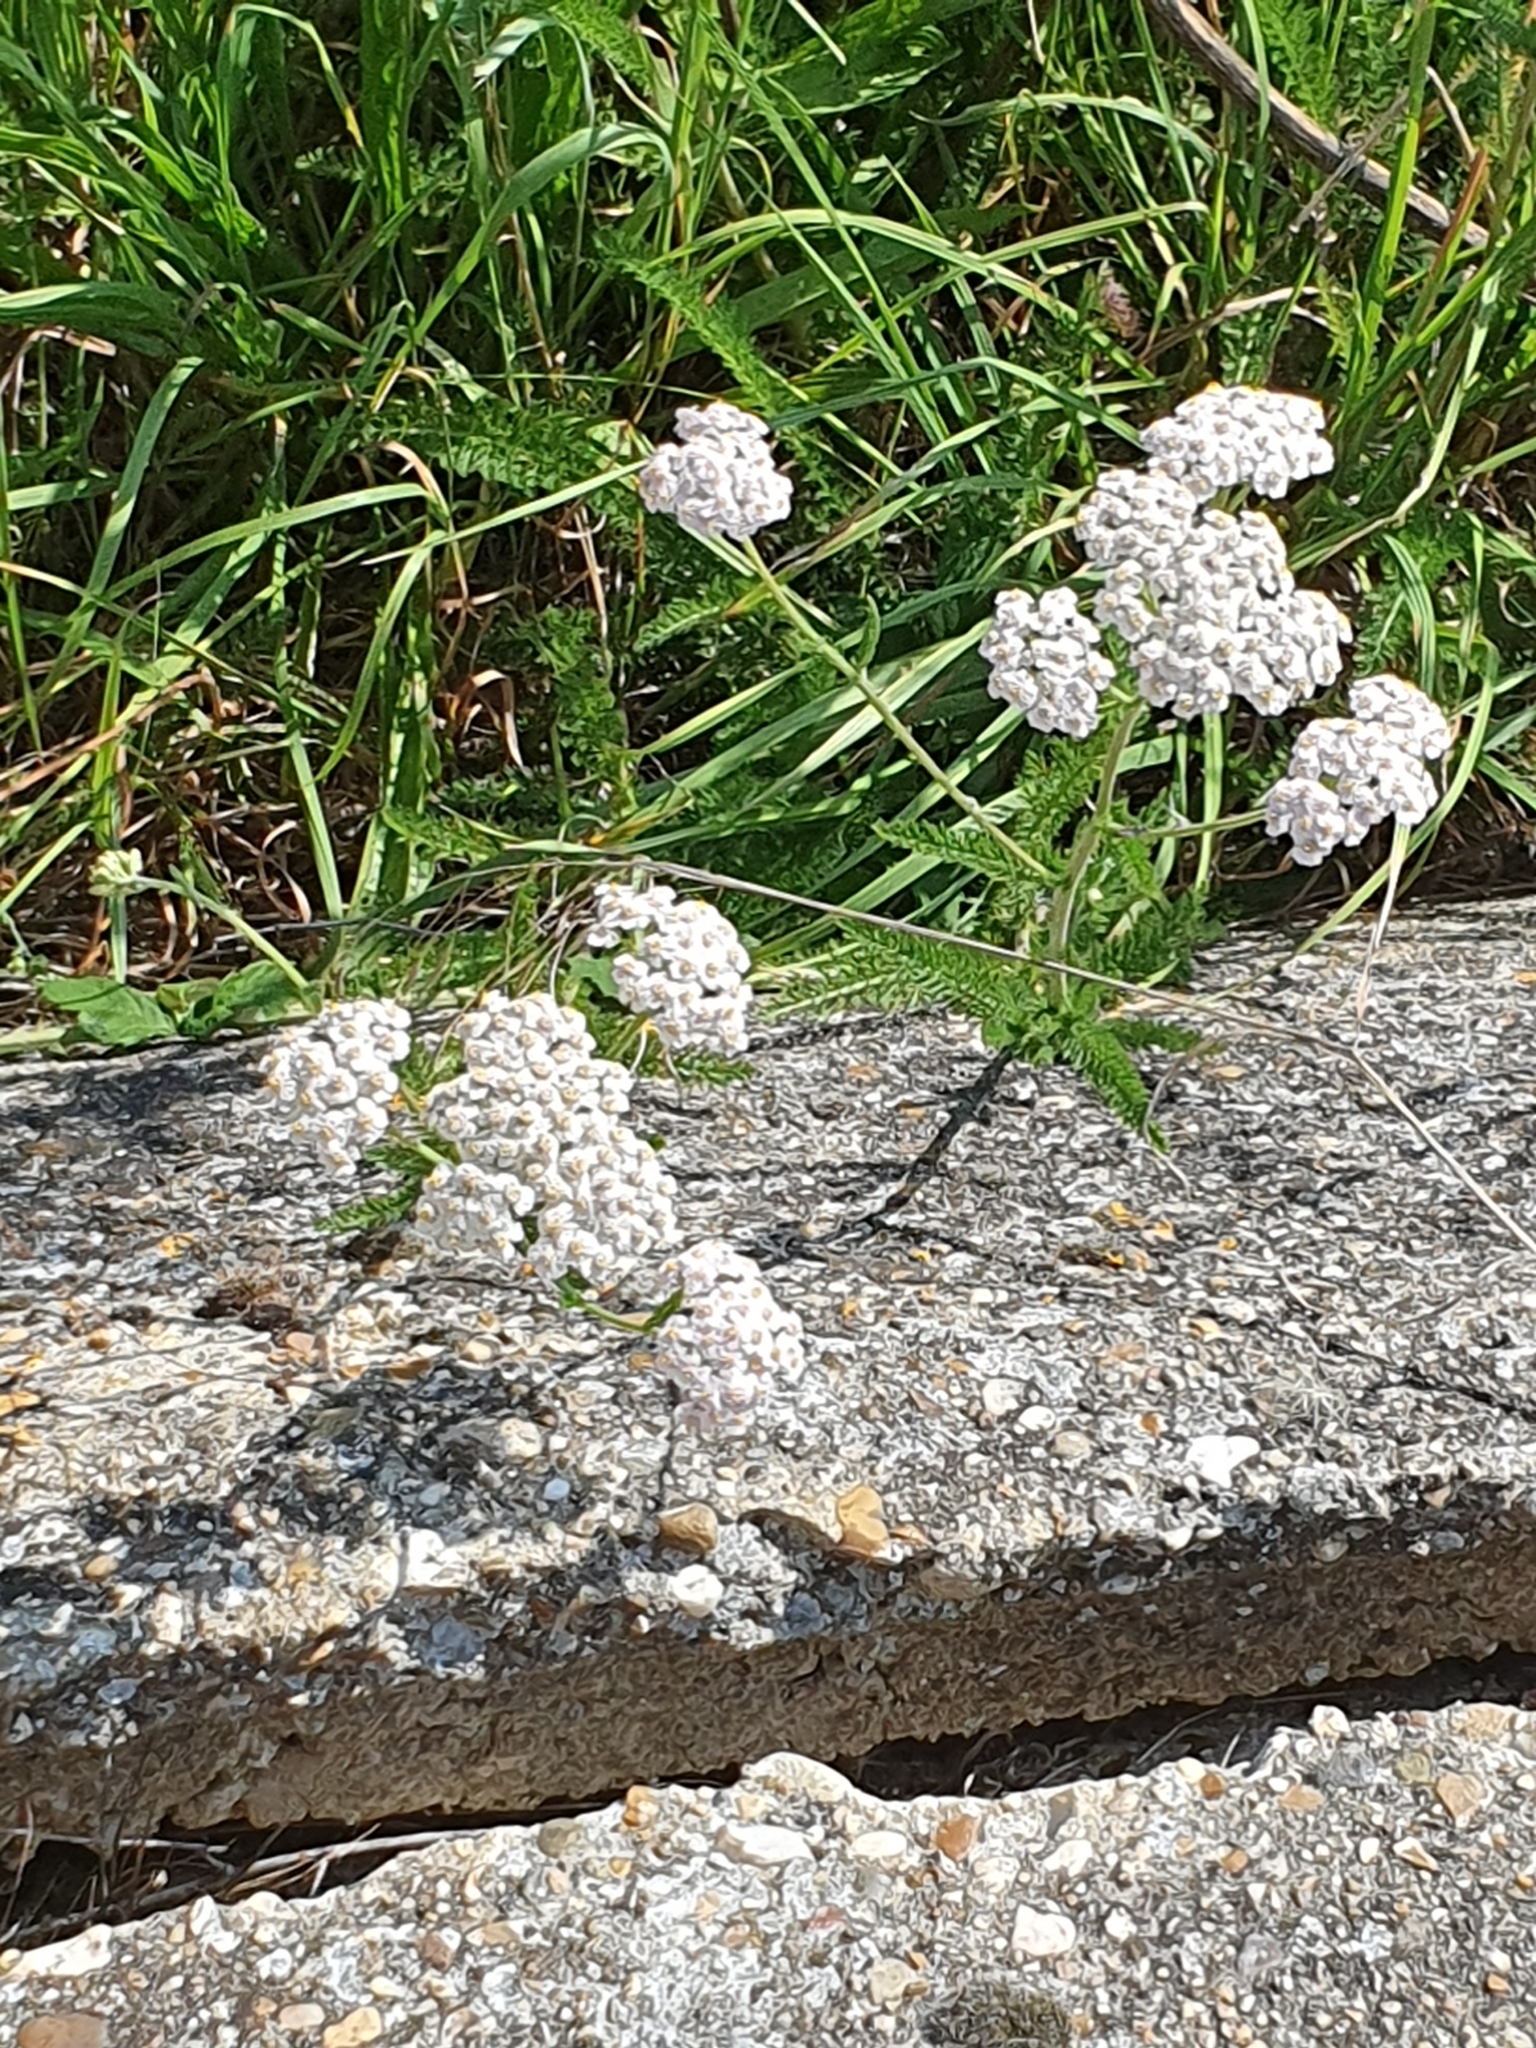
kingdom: Plantae
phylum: Tracheophyta
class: Magnoliopsida
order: Asterales
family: Asteraceae
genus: Achillea
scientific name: Achillea millefolium
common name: Yarrow
